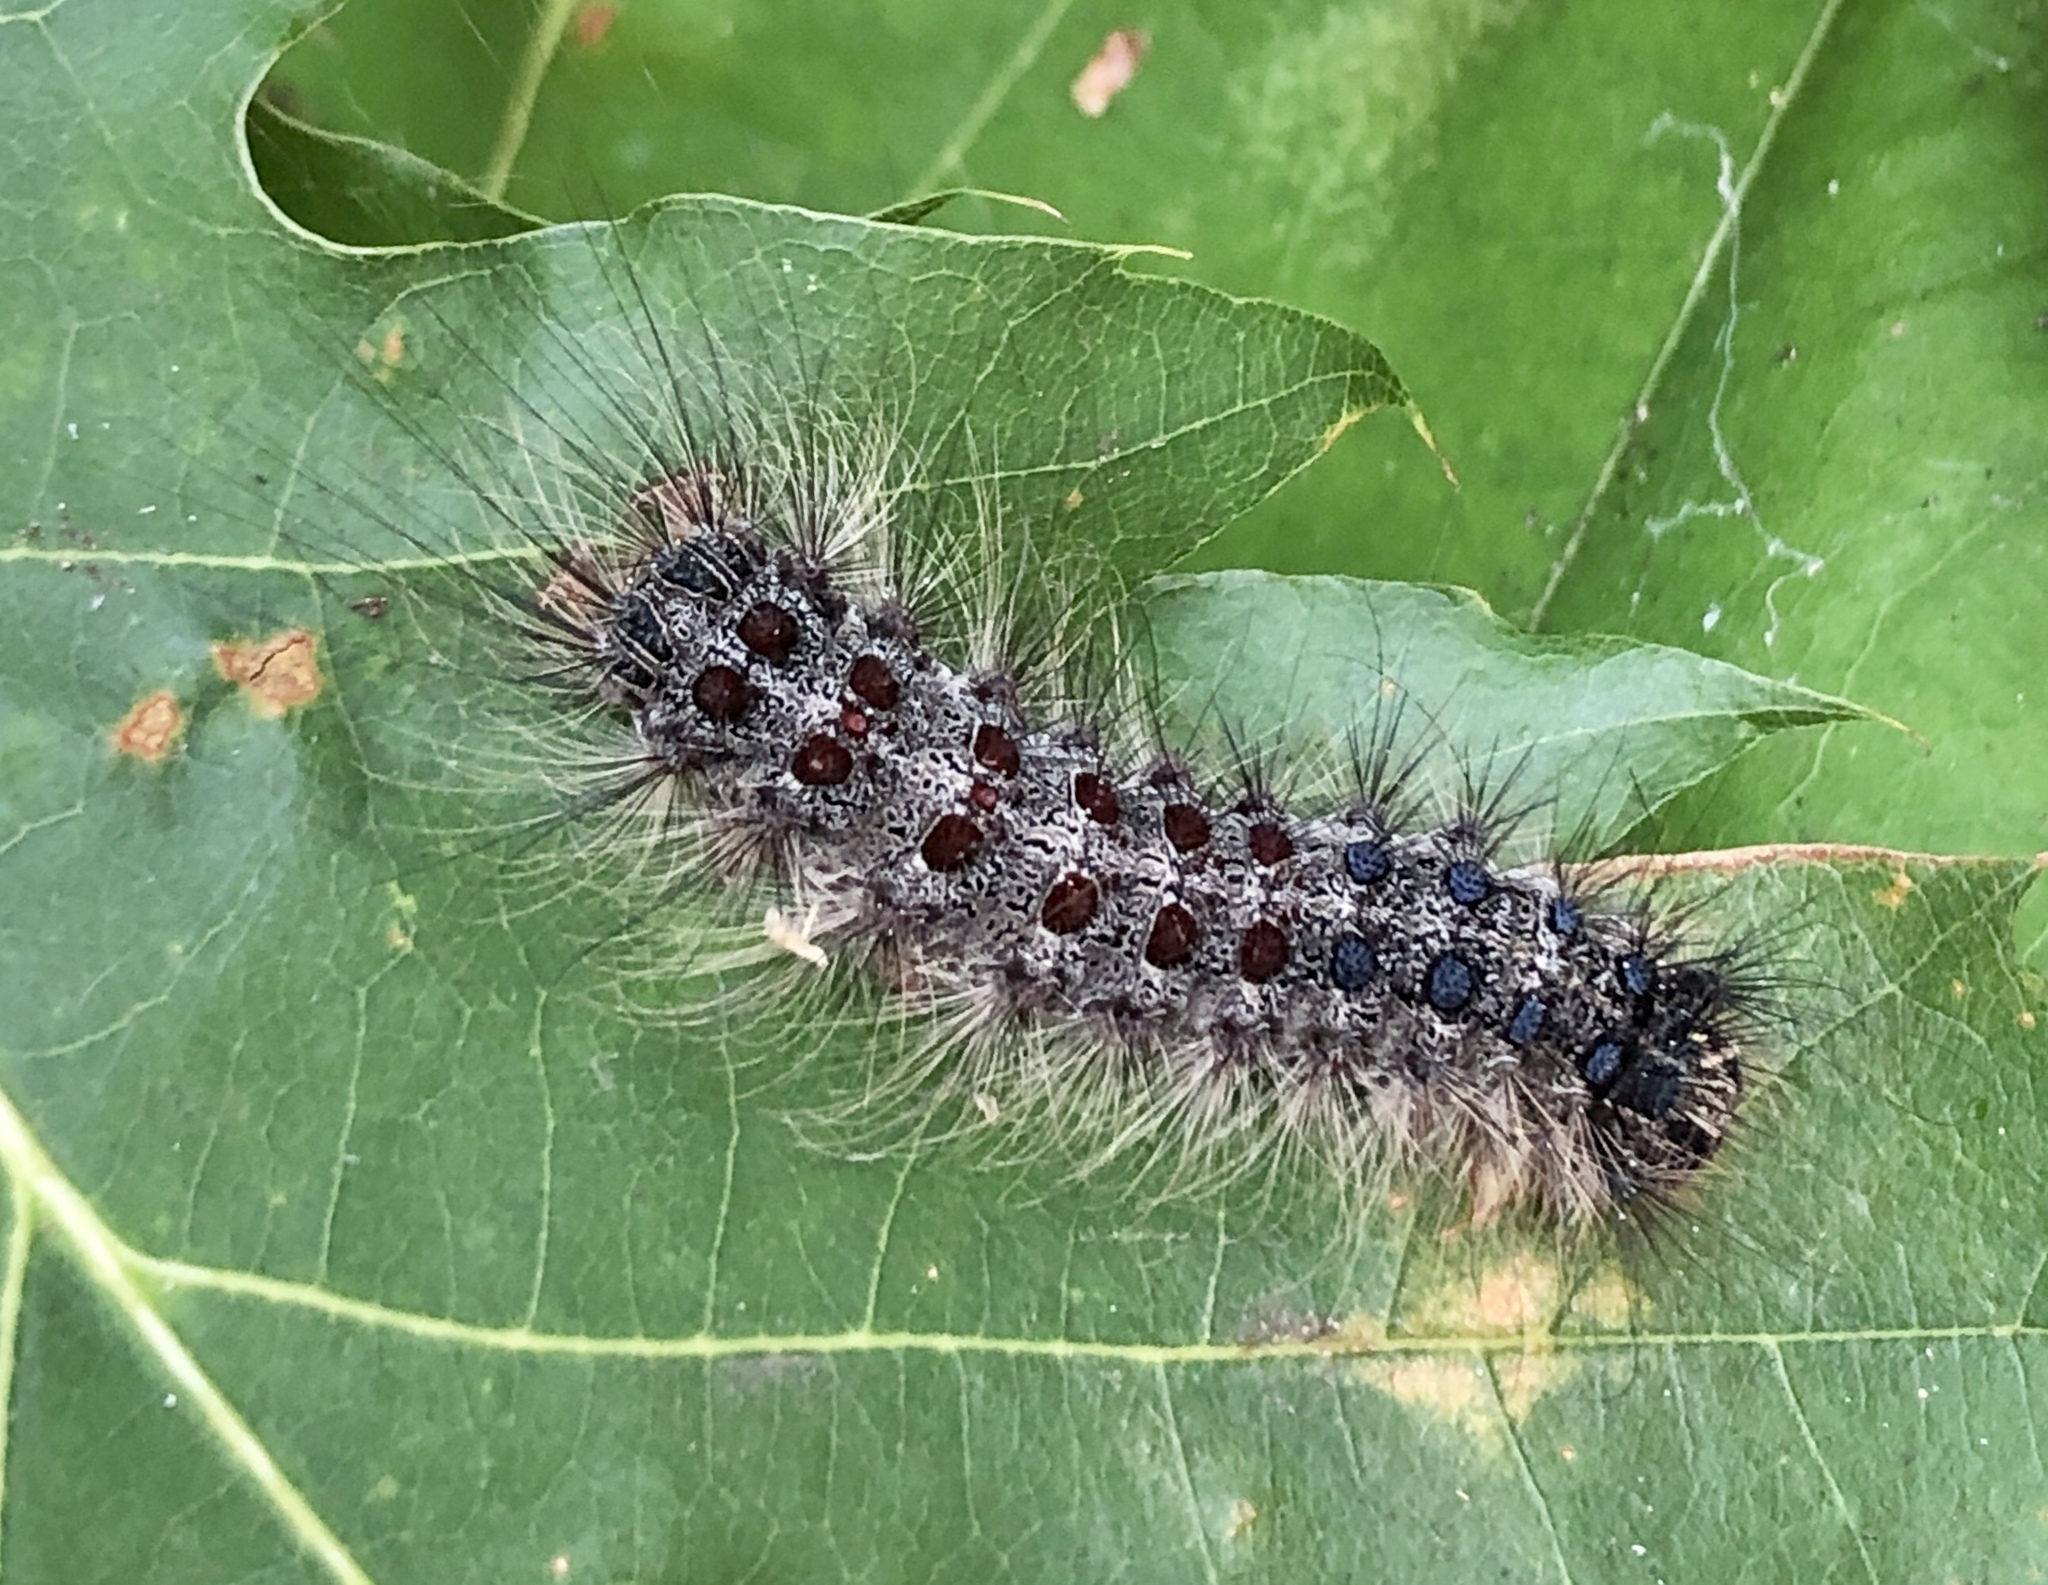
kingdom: Animalia
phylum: Arthropoda
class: Insecta
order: Lepidoptera
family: Erebidae
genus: Lymantria
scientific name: Lymantria dispar
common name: Gypsy moth
